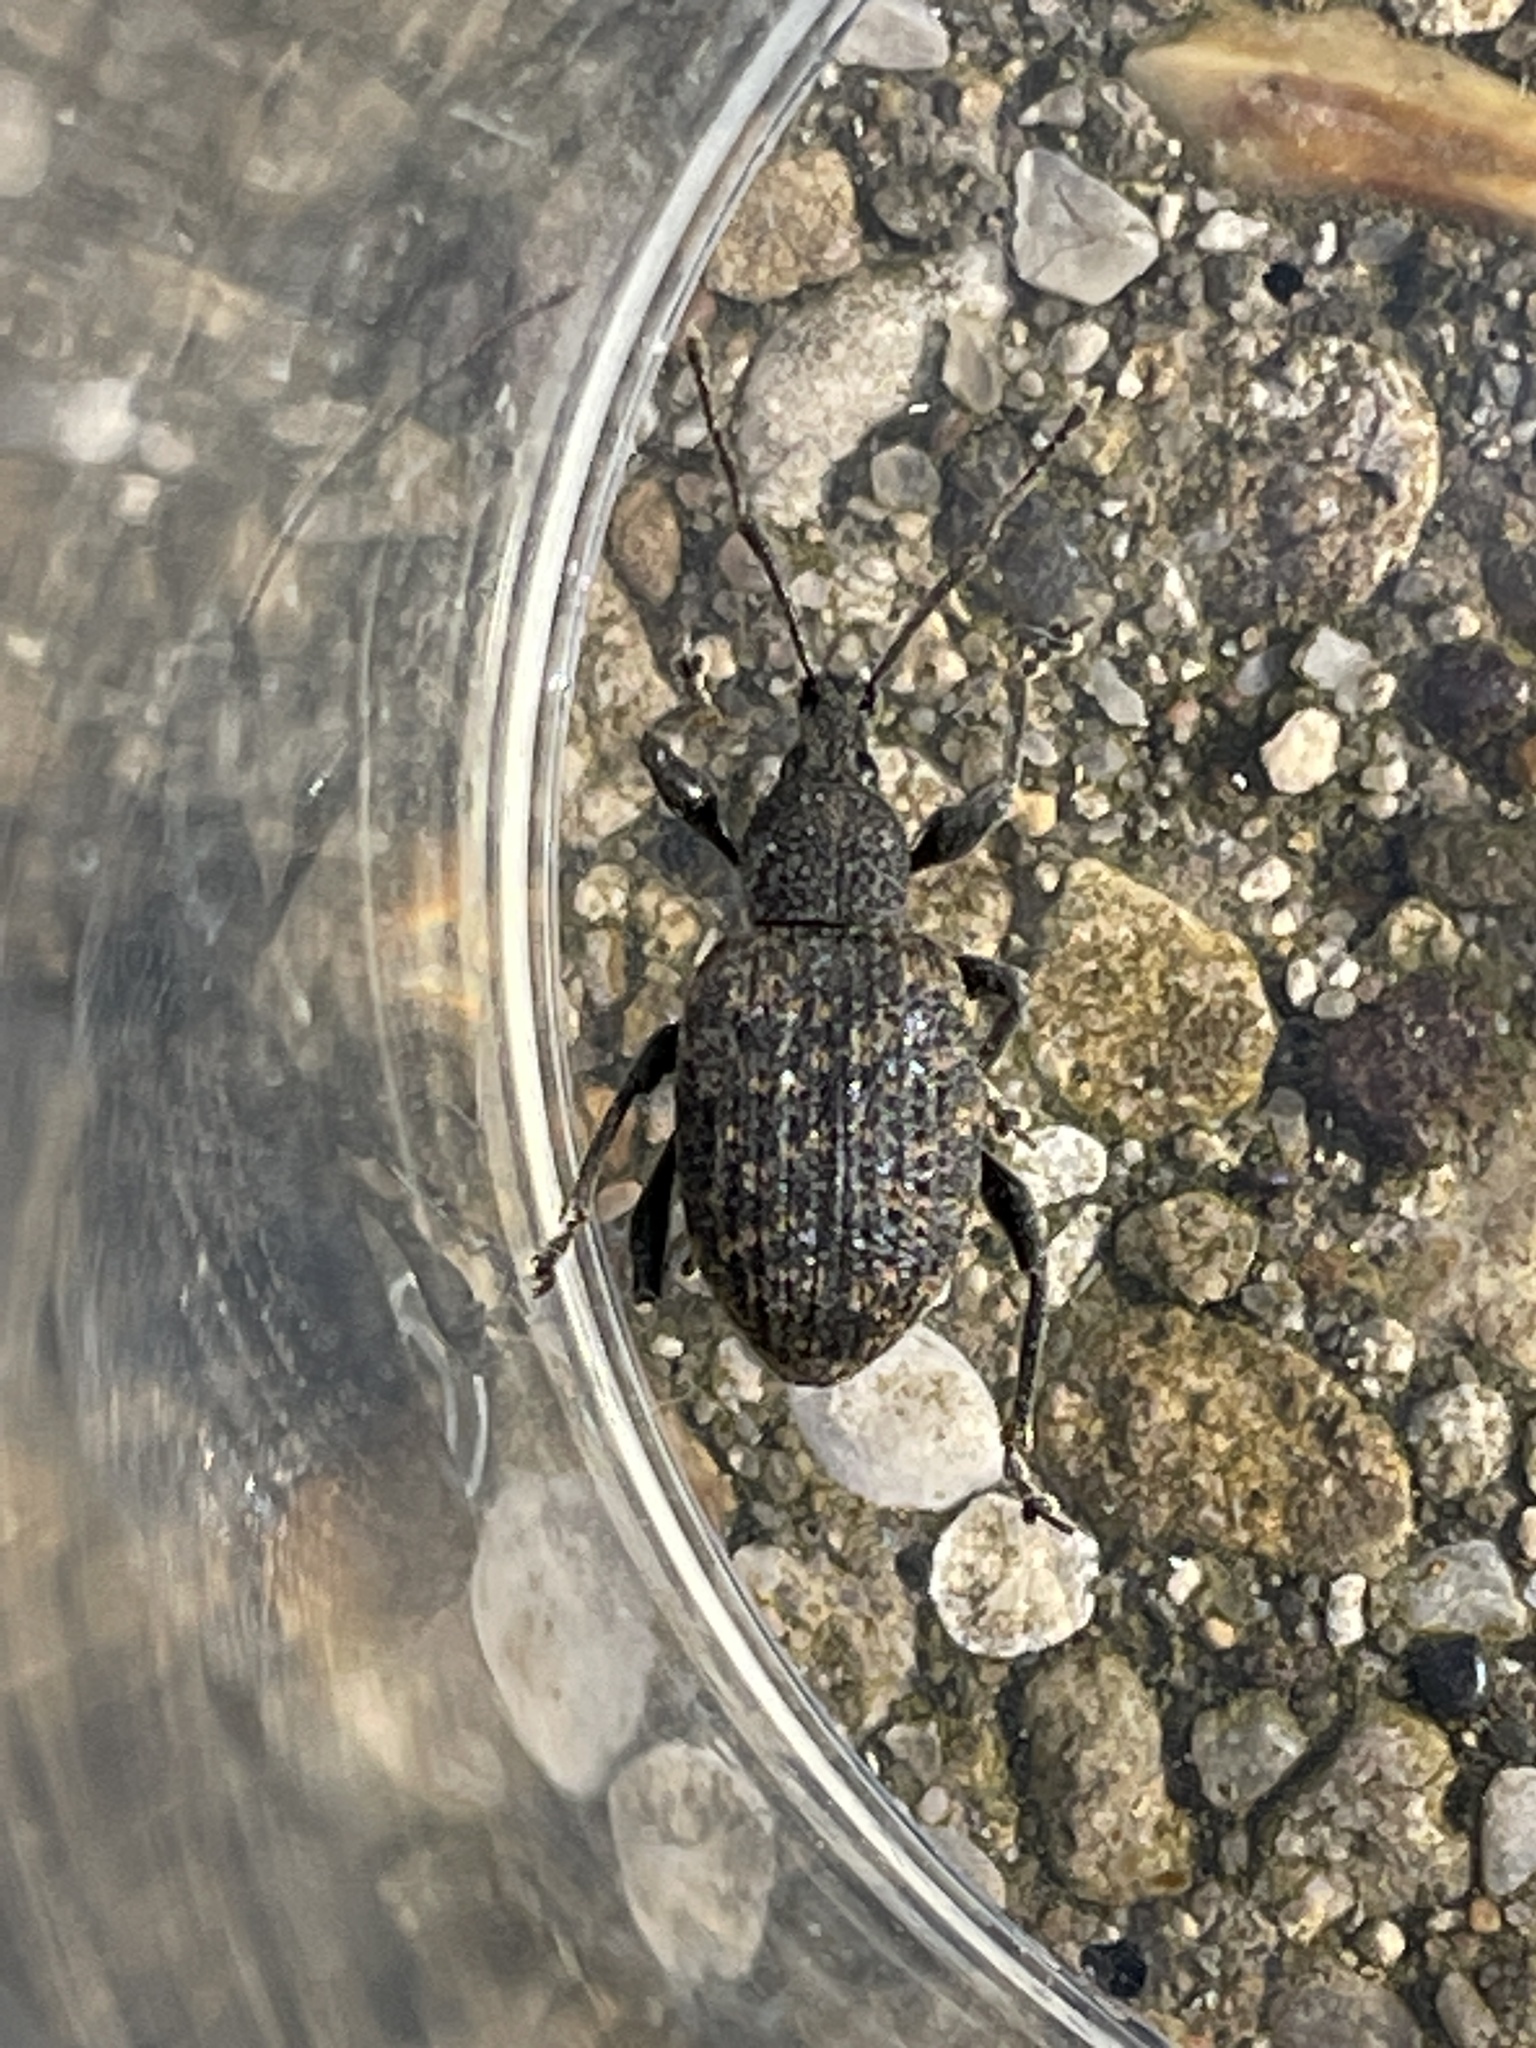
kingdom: Animalia
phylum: Arthropoda
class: Insecta
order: Coleoptera
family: Curculionidae
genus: Otiorhynchus
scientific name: Otiorhynchus sulcatus
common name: Black vine weevil
